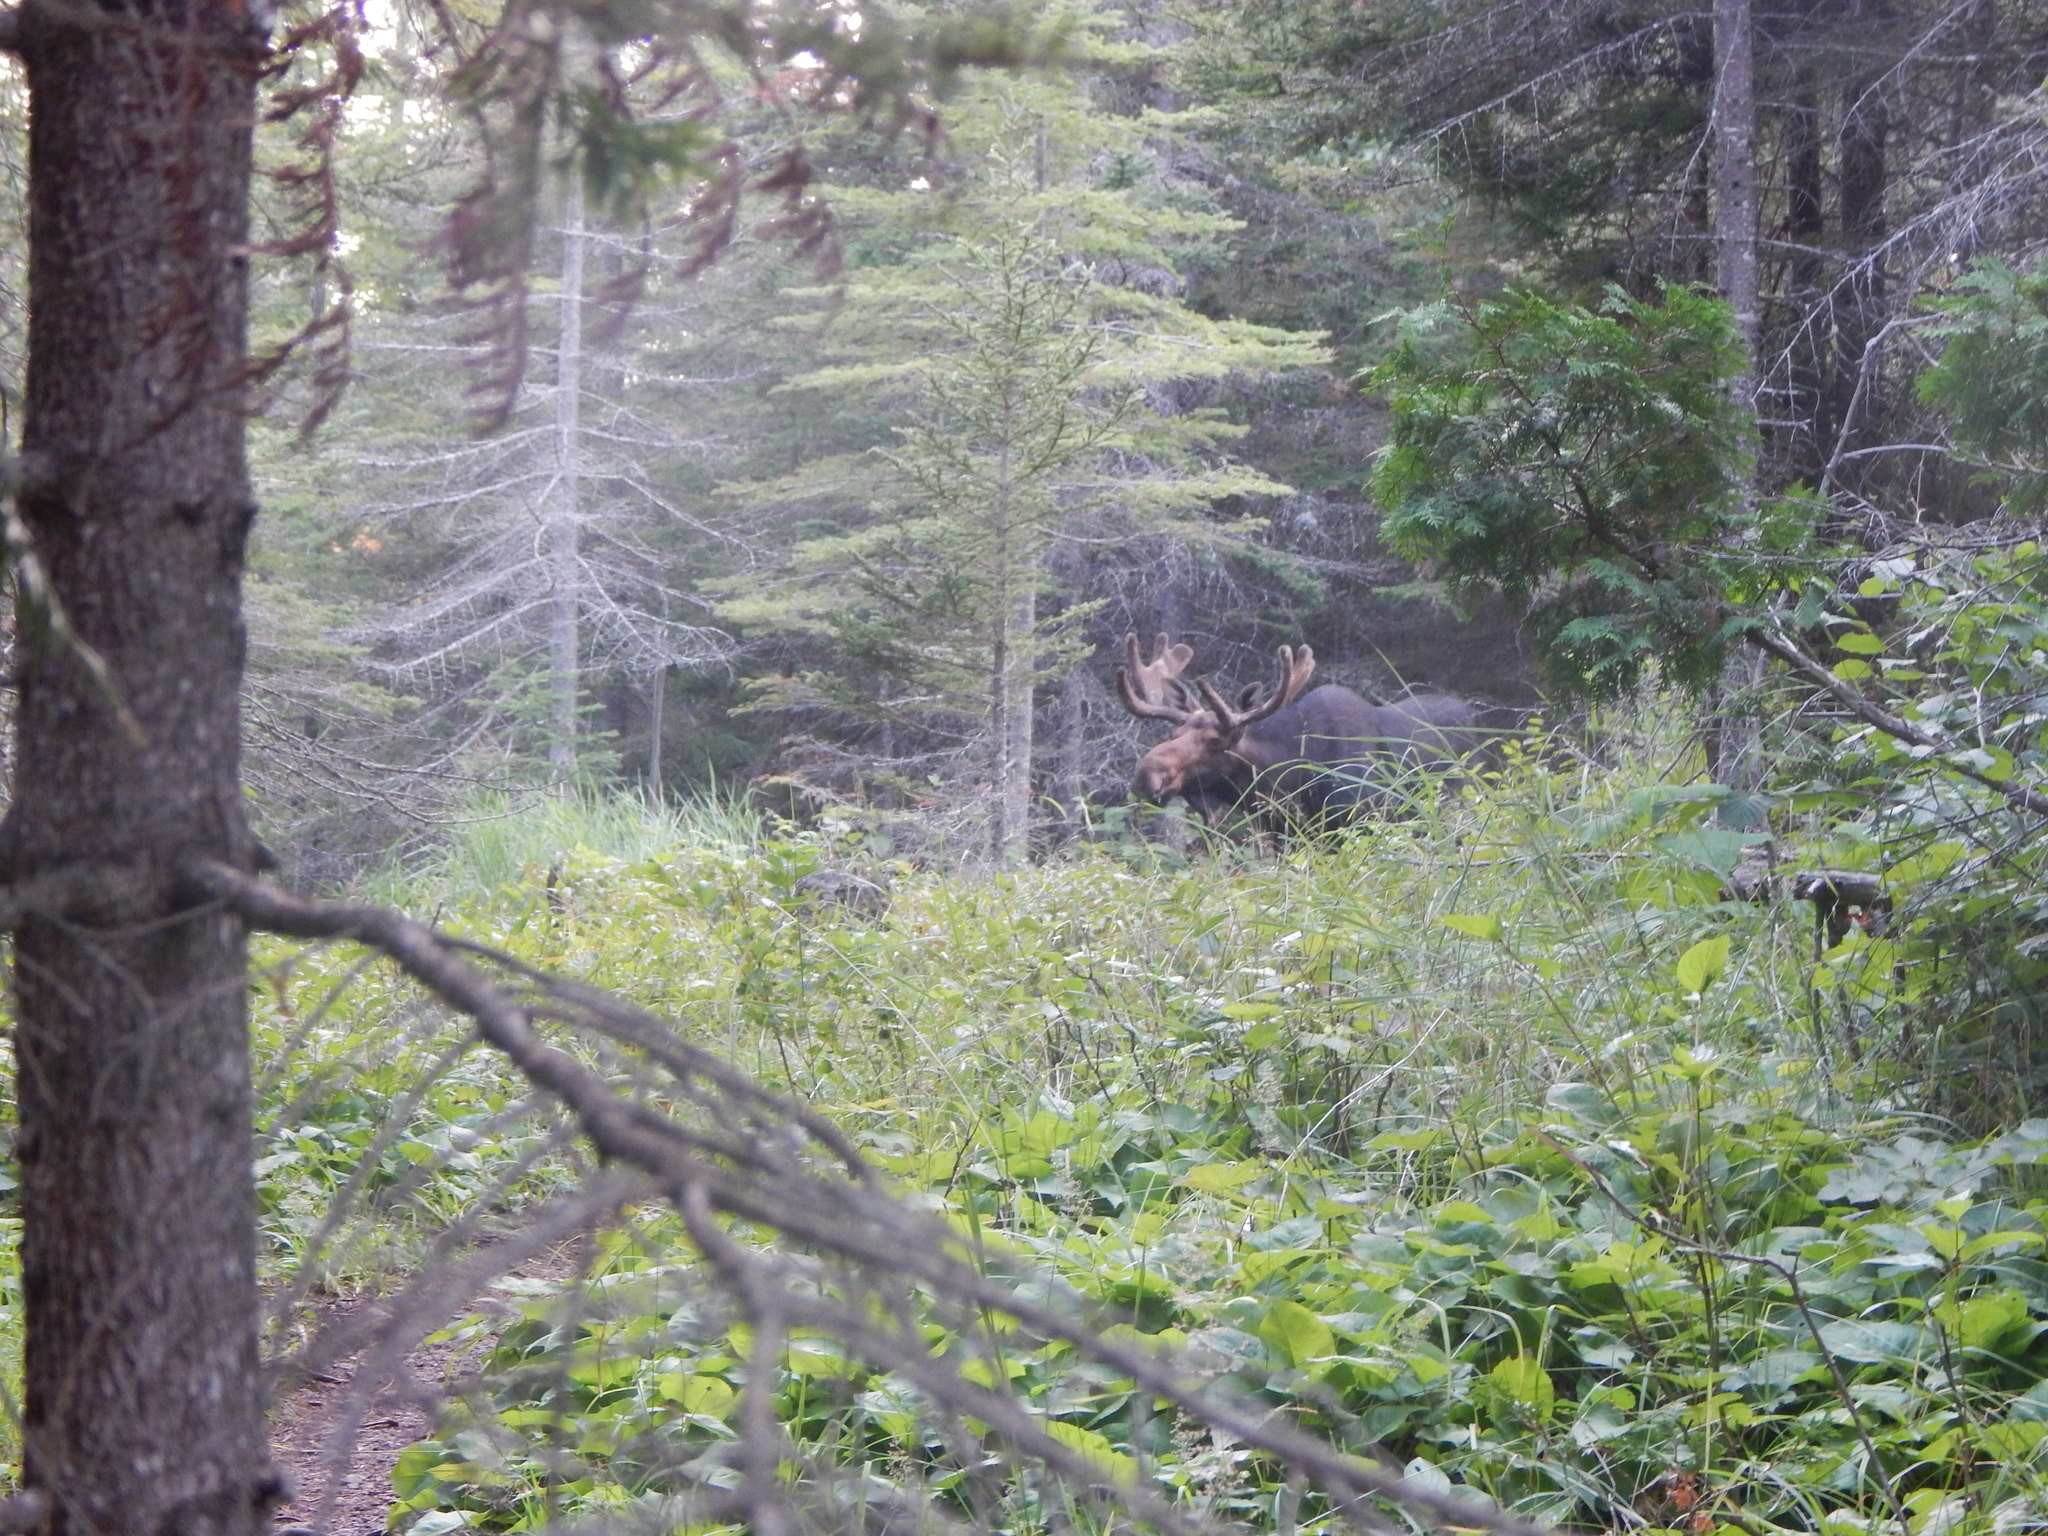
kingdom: Animalia
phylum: Chordata
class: Mammalia
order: Artiodactyla
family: Cervidae
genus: Alces
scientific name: Alces alces
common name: Moose
